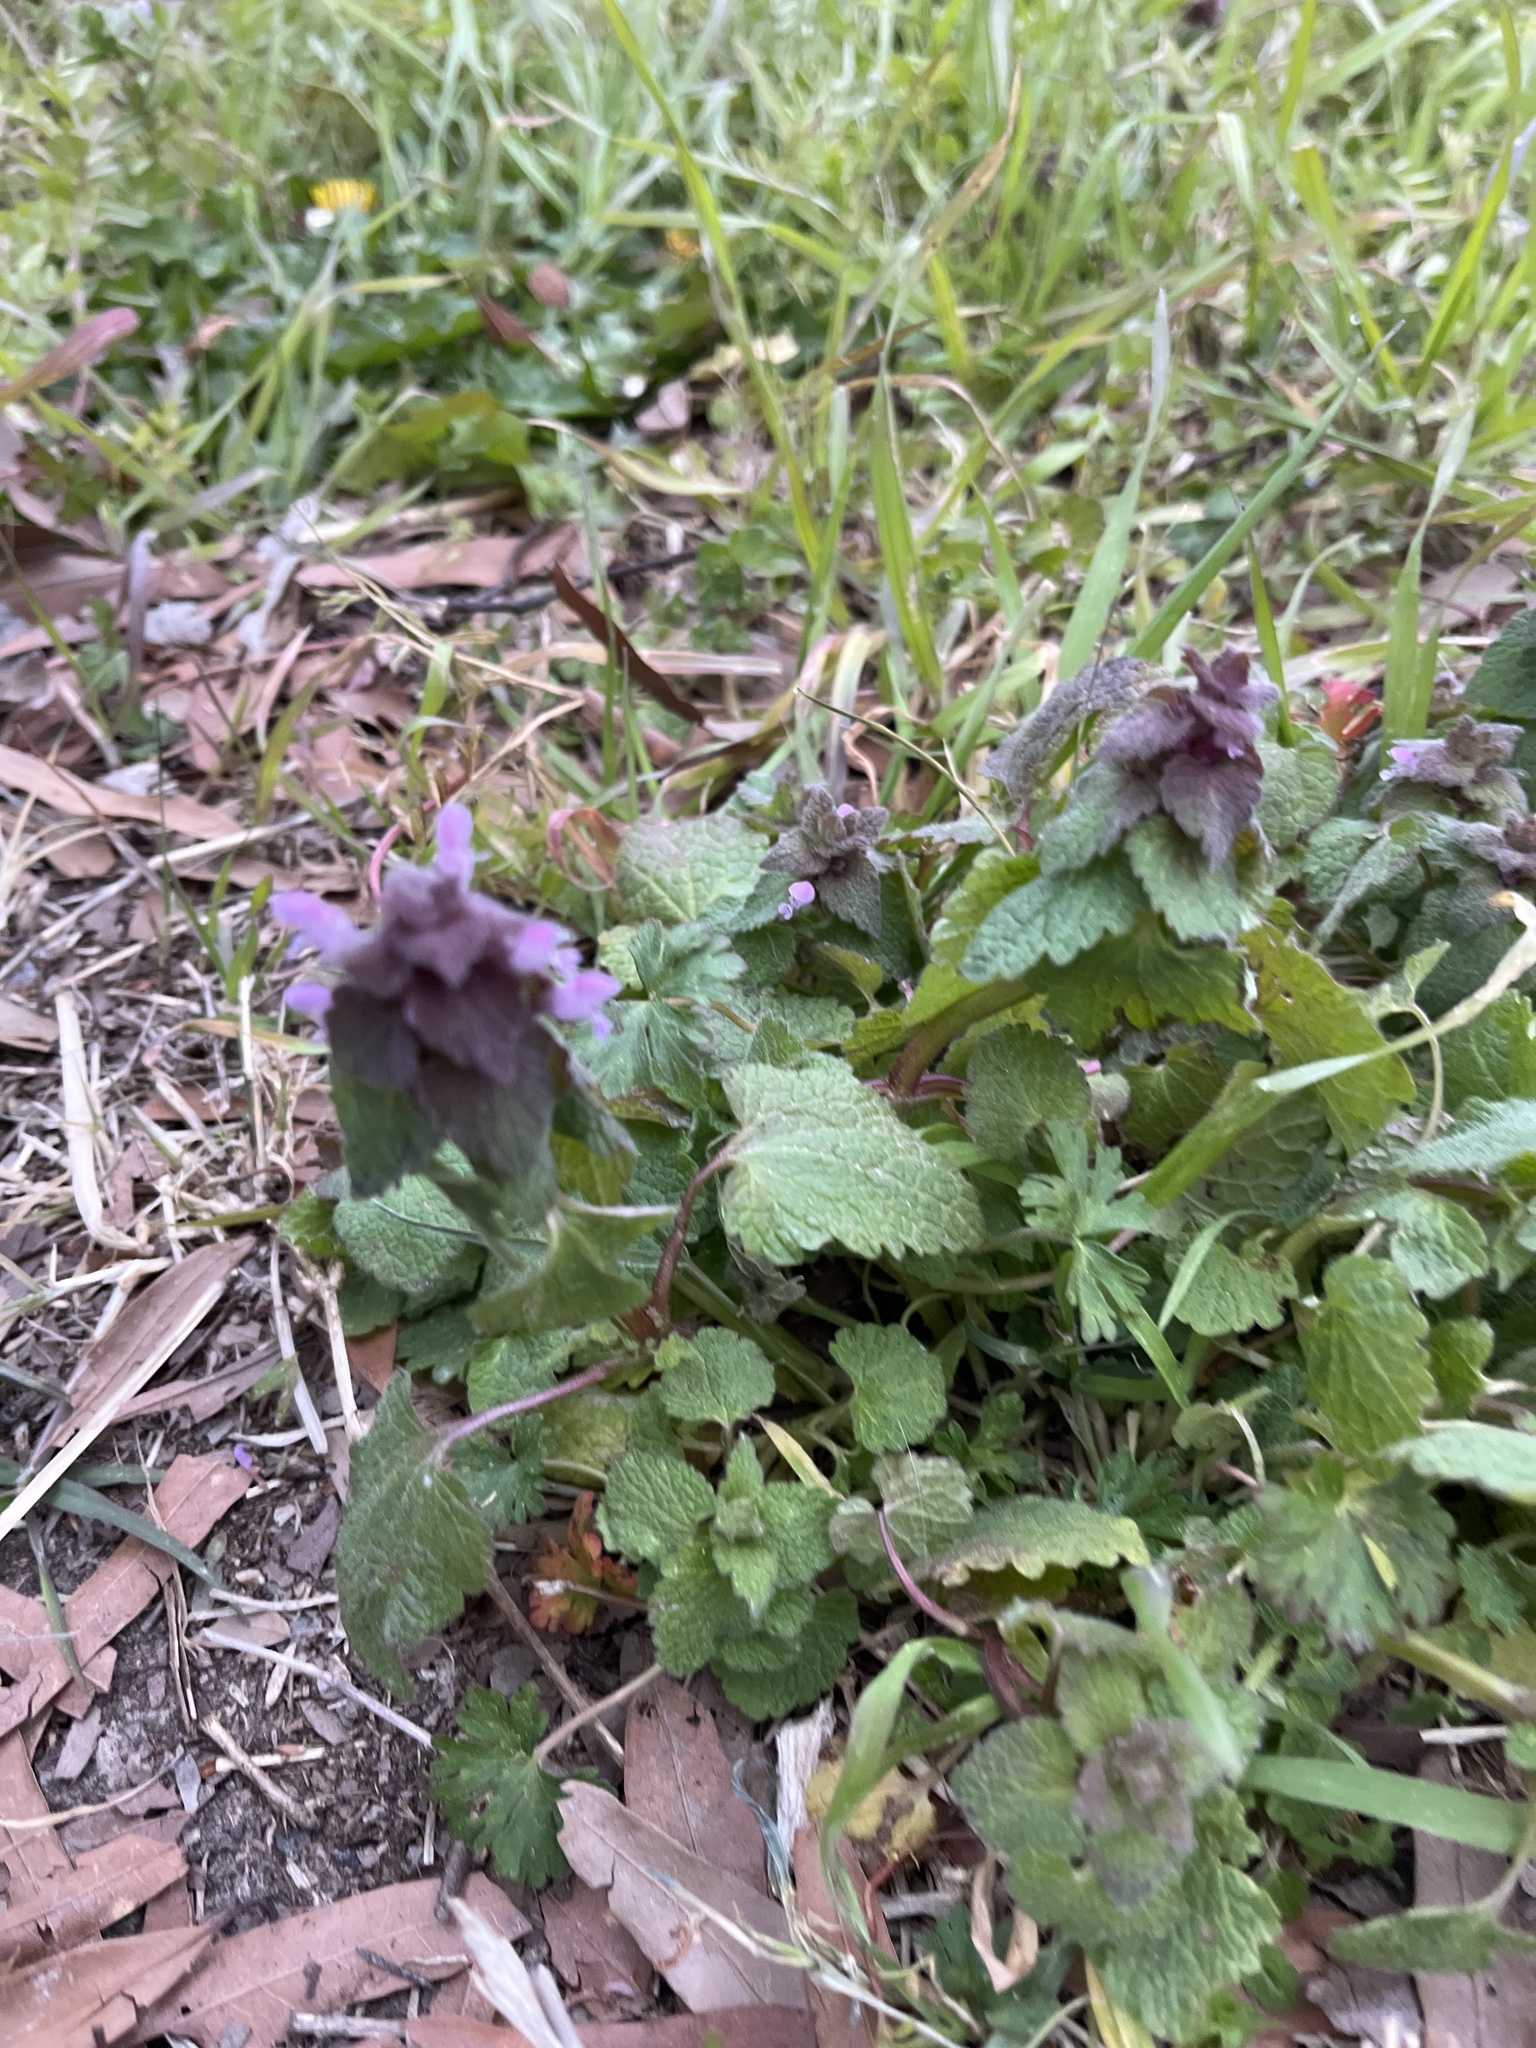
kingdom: Plantae
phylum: Tracheophyta
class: Magnoliopsida
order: Lamiales
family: Lamiaceae
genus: Lamium
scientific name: Lamium purpureum
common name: Red dead-nettle
